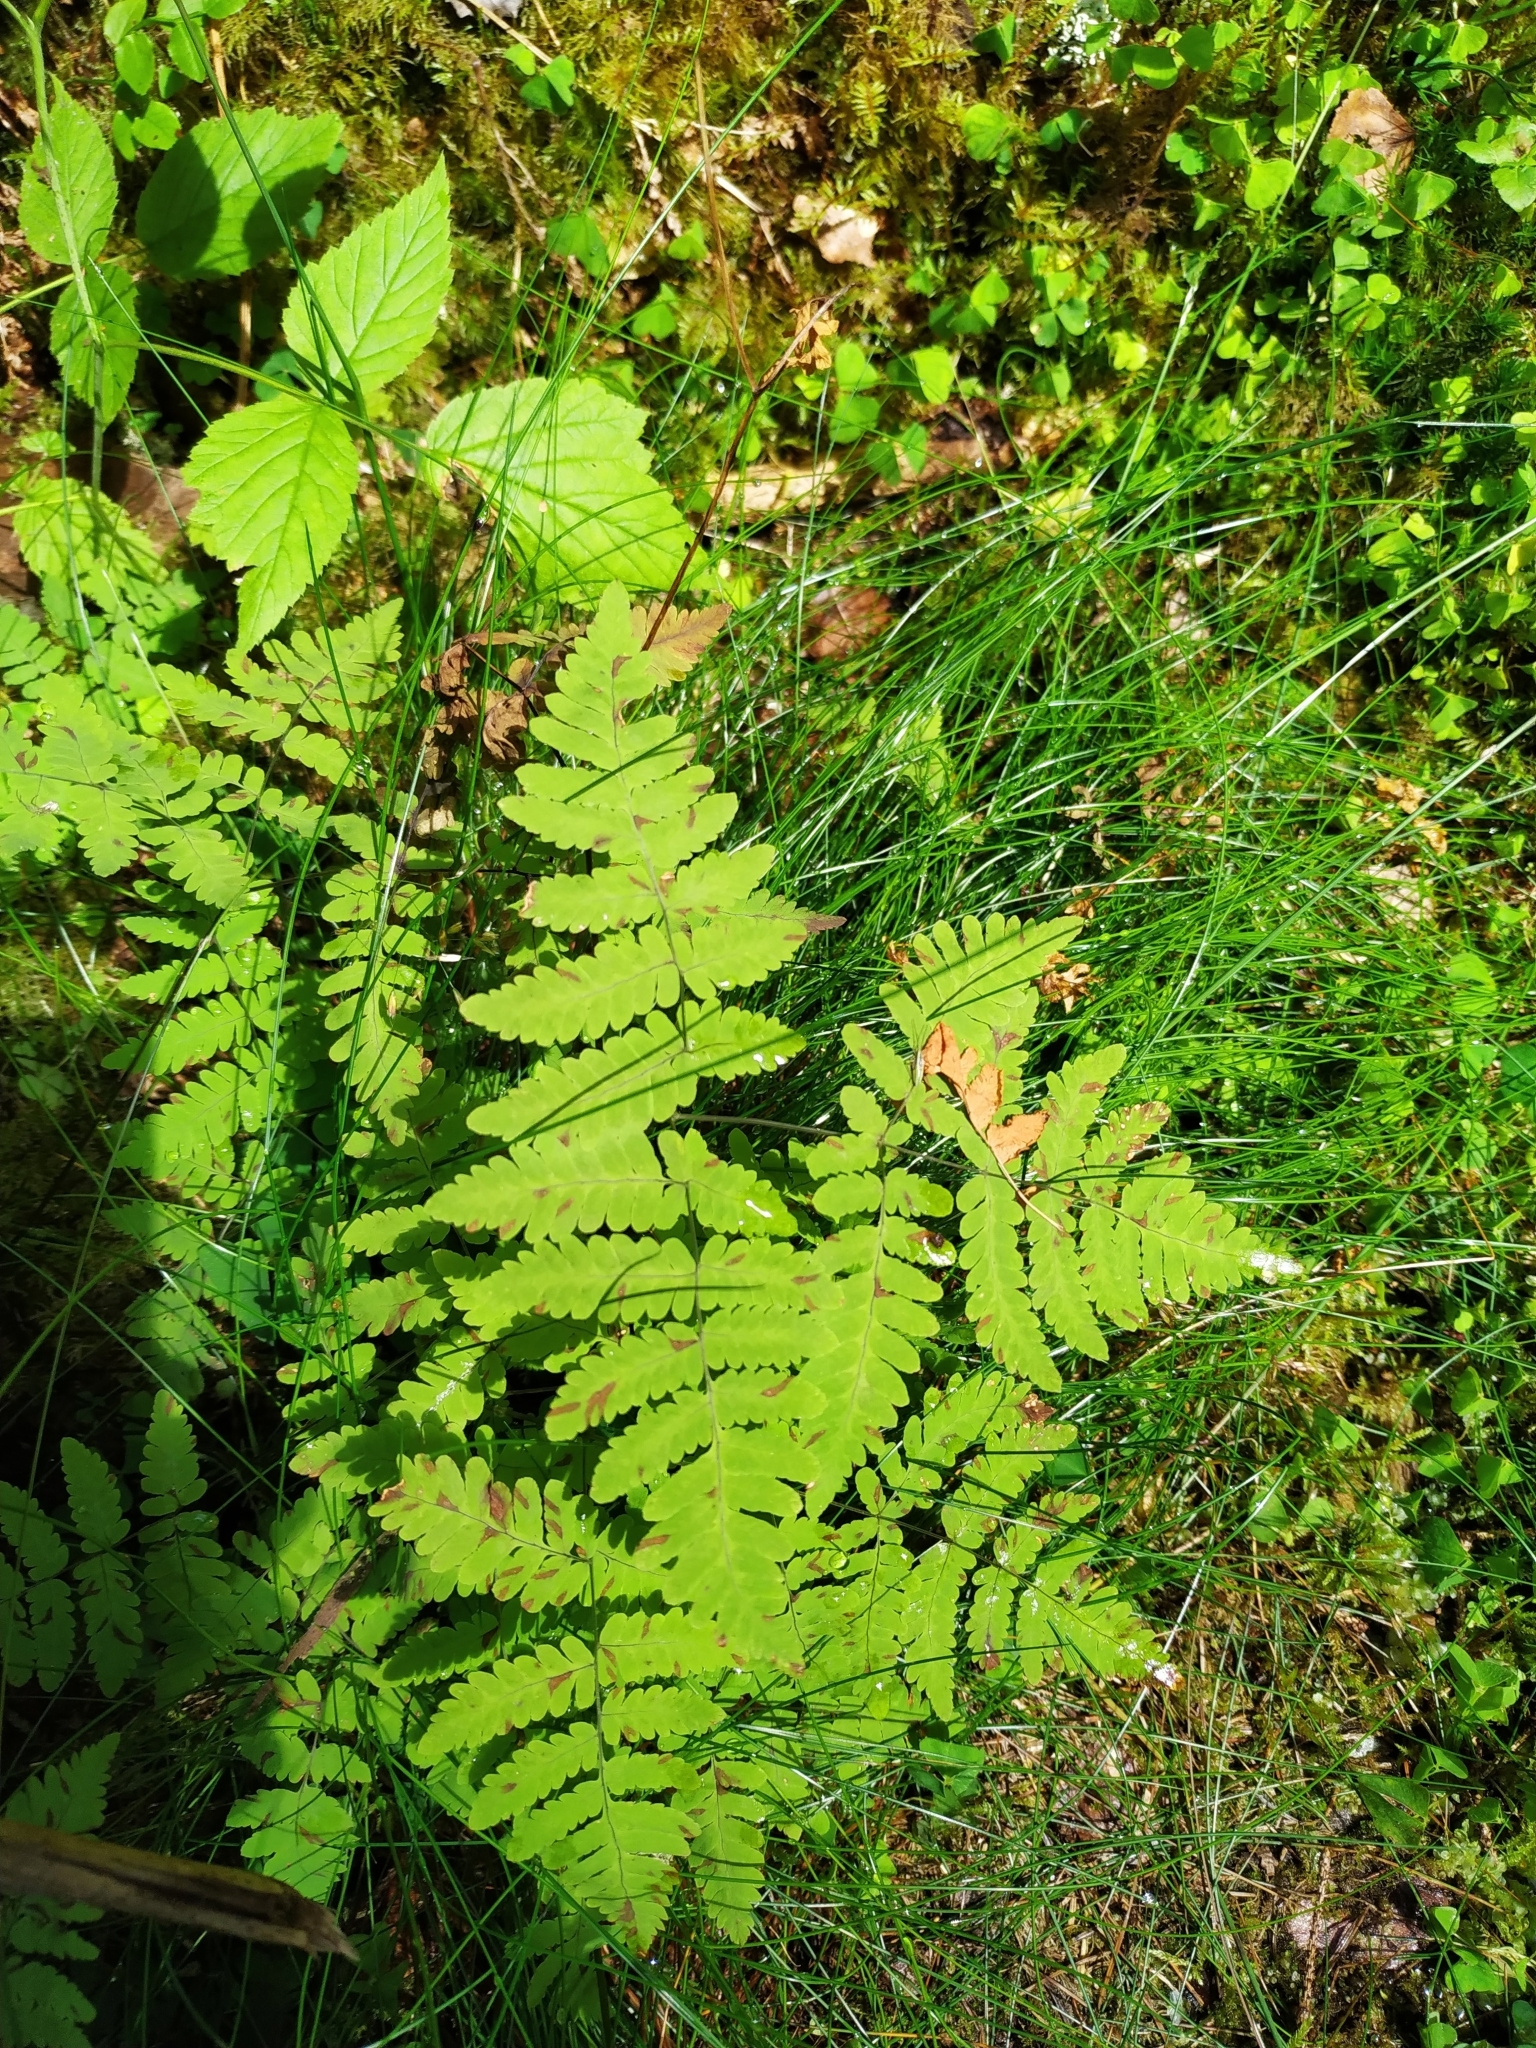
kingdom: Plantae
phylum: Tracheophyta
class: Polypodiopsida
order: Polypodiales
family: Cystopteridaceae
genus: Gymnocarpium
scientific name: Gymnocarpium dryopteris
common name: Oak fern
